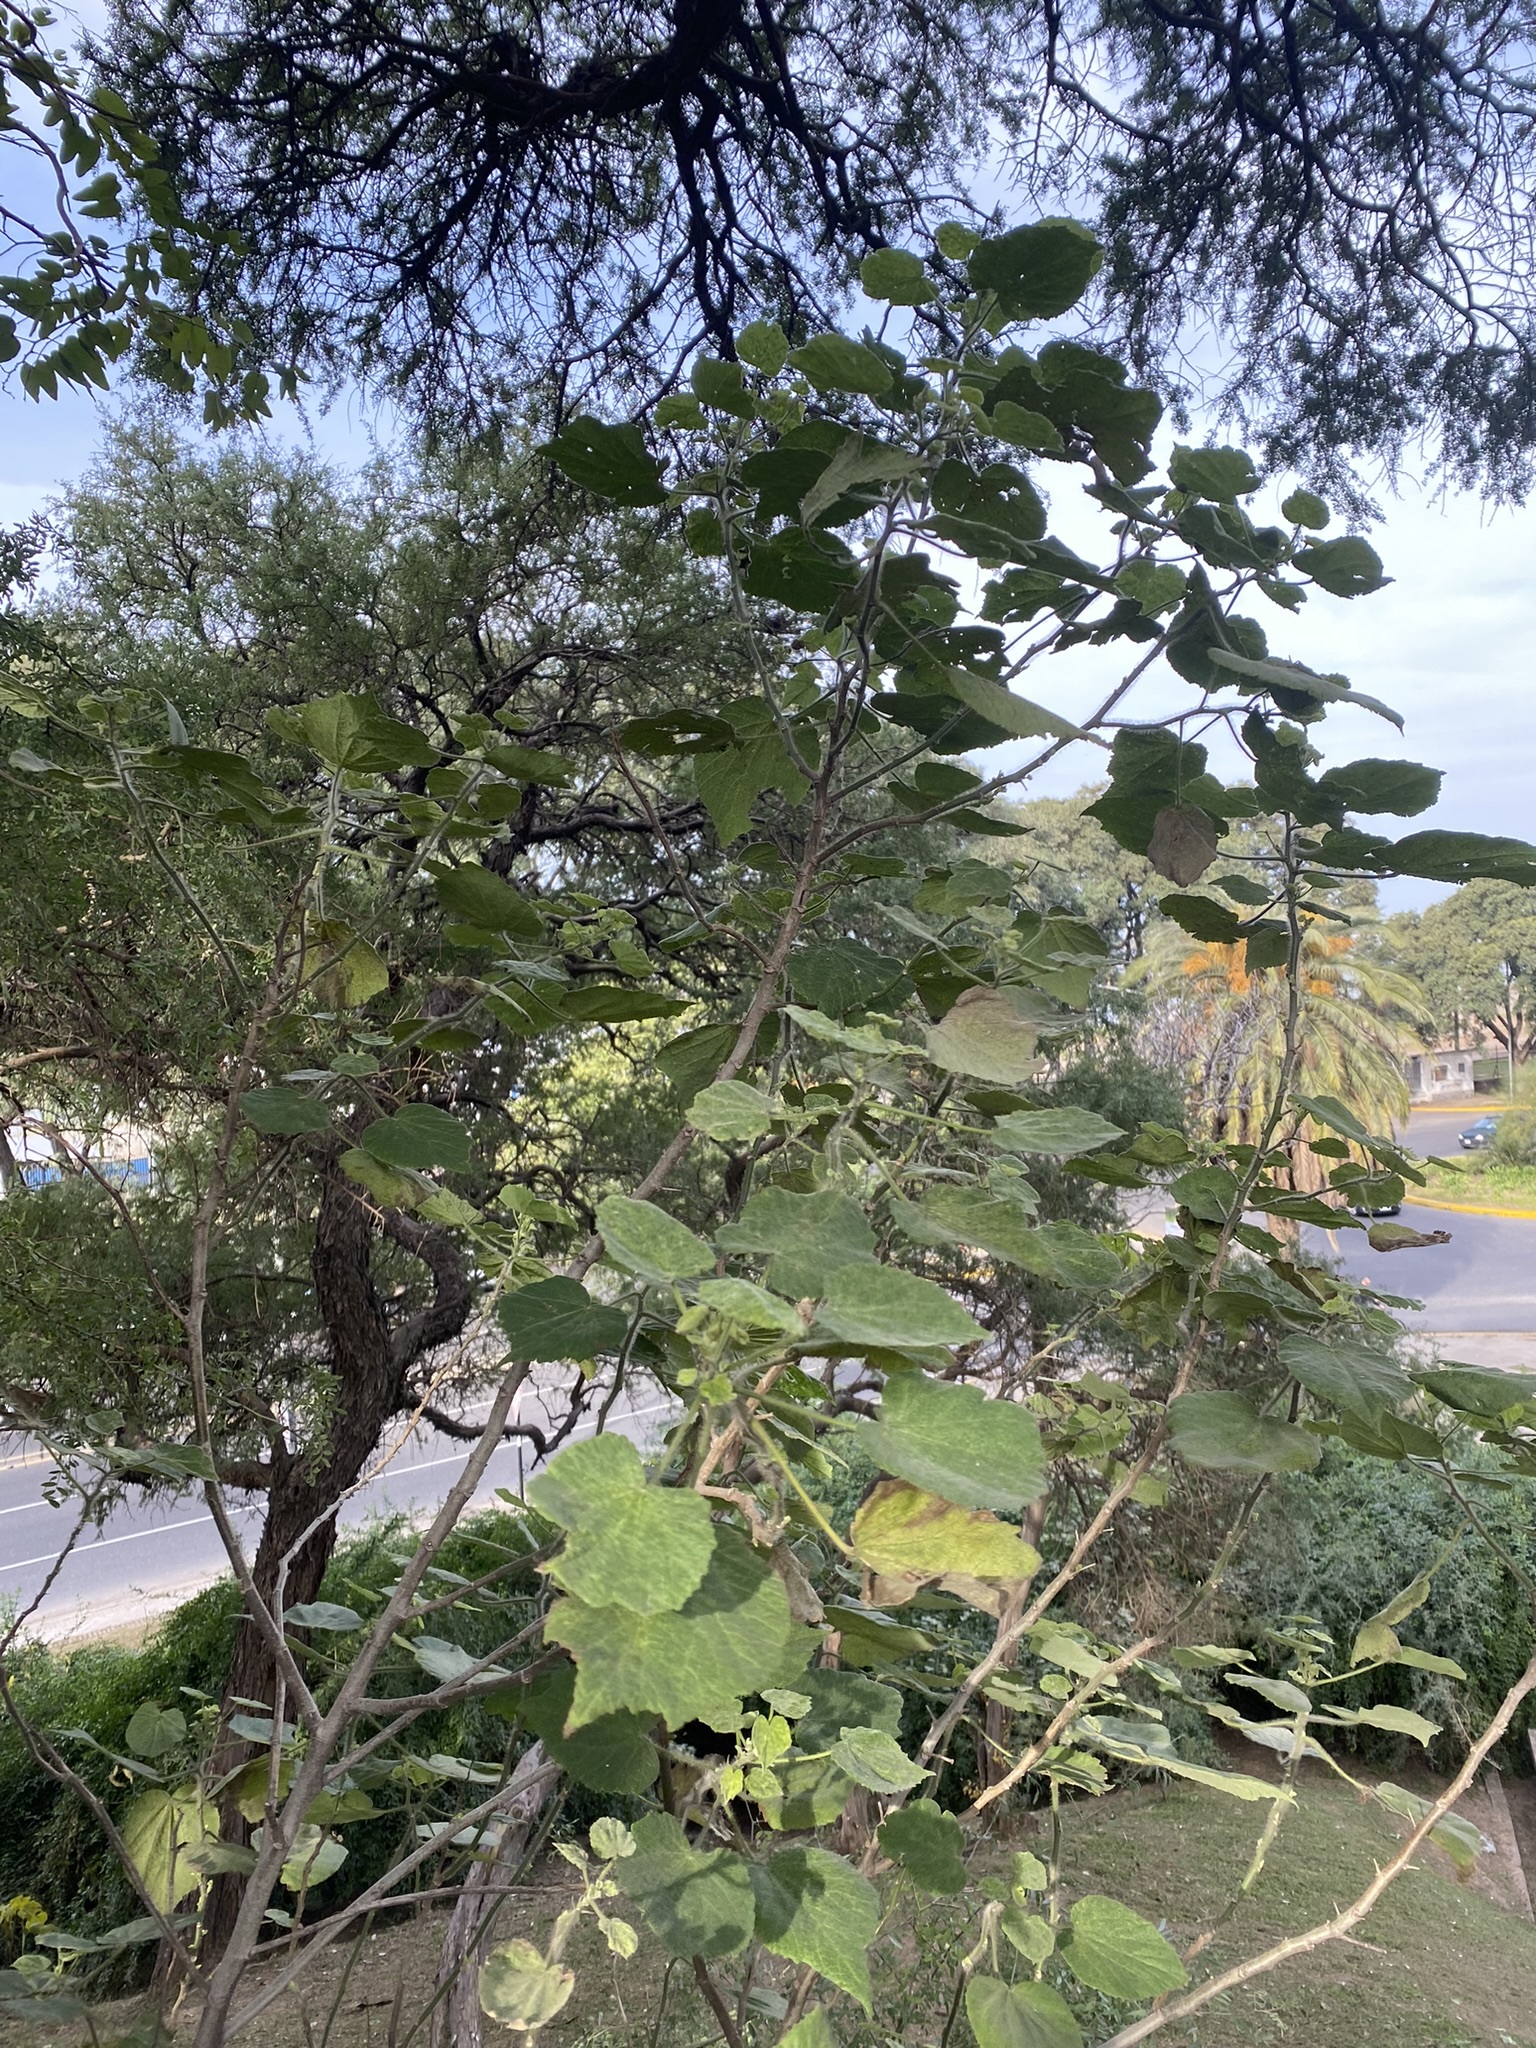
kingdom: Plantae
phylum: Tracheophyta
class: Magnoliopsida
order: Malvales
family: Malvaceae
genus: Abutilon
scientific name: Abutilon grandifolium
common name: Hairy abutilon
